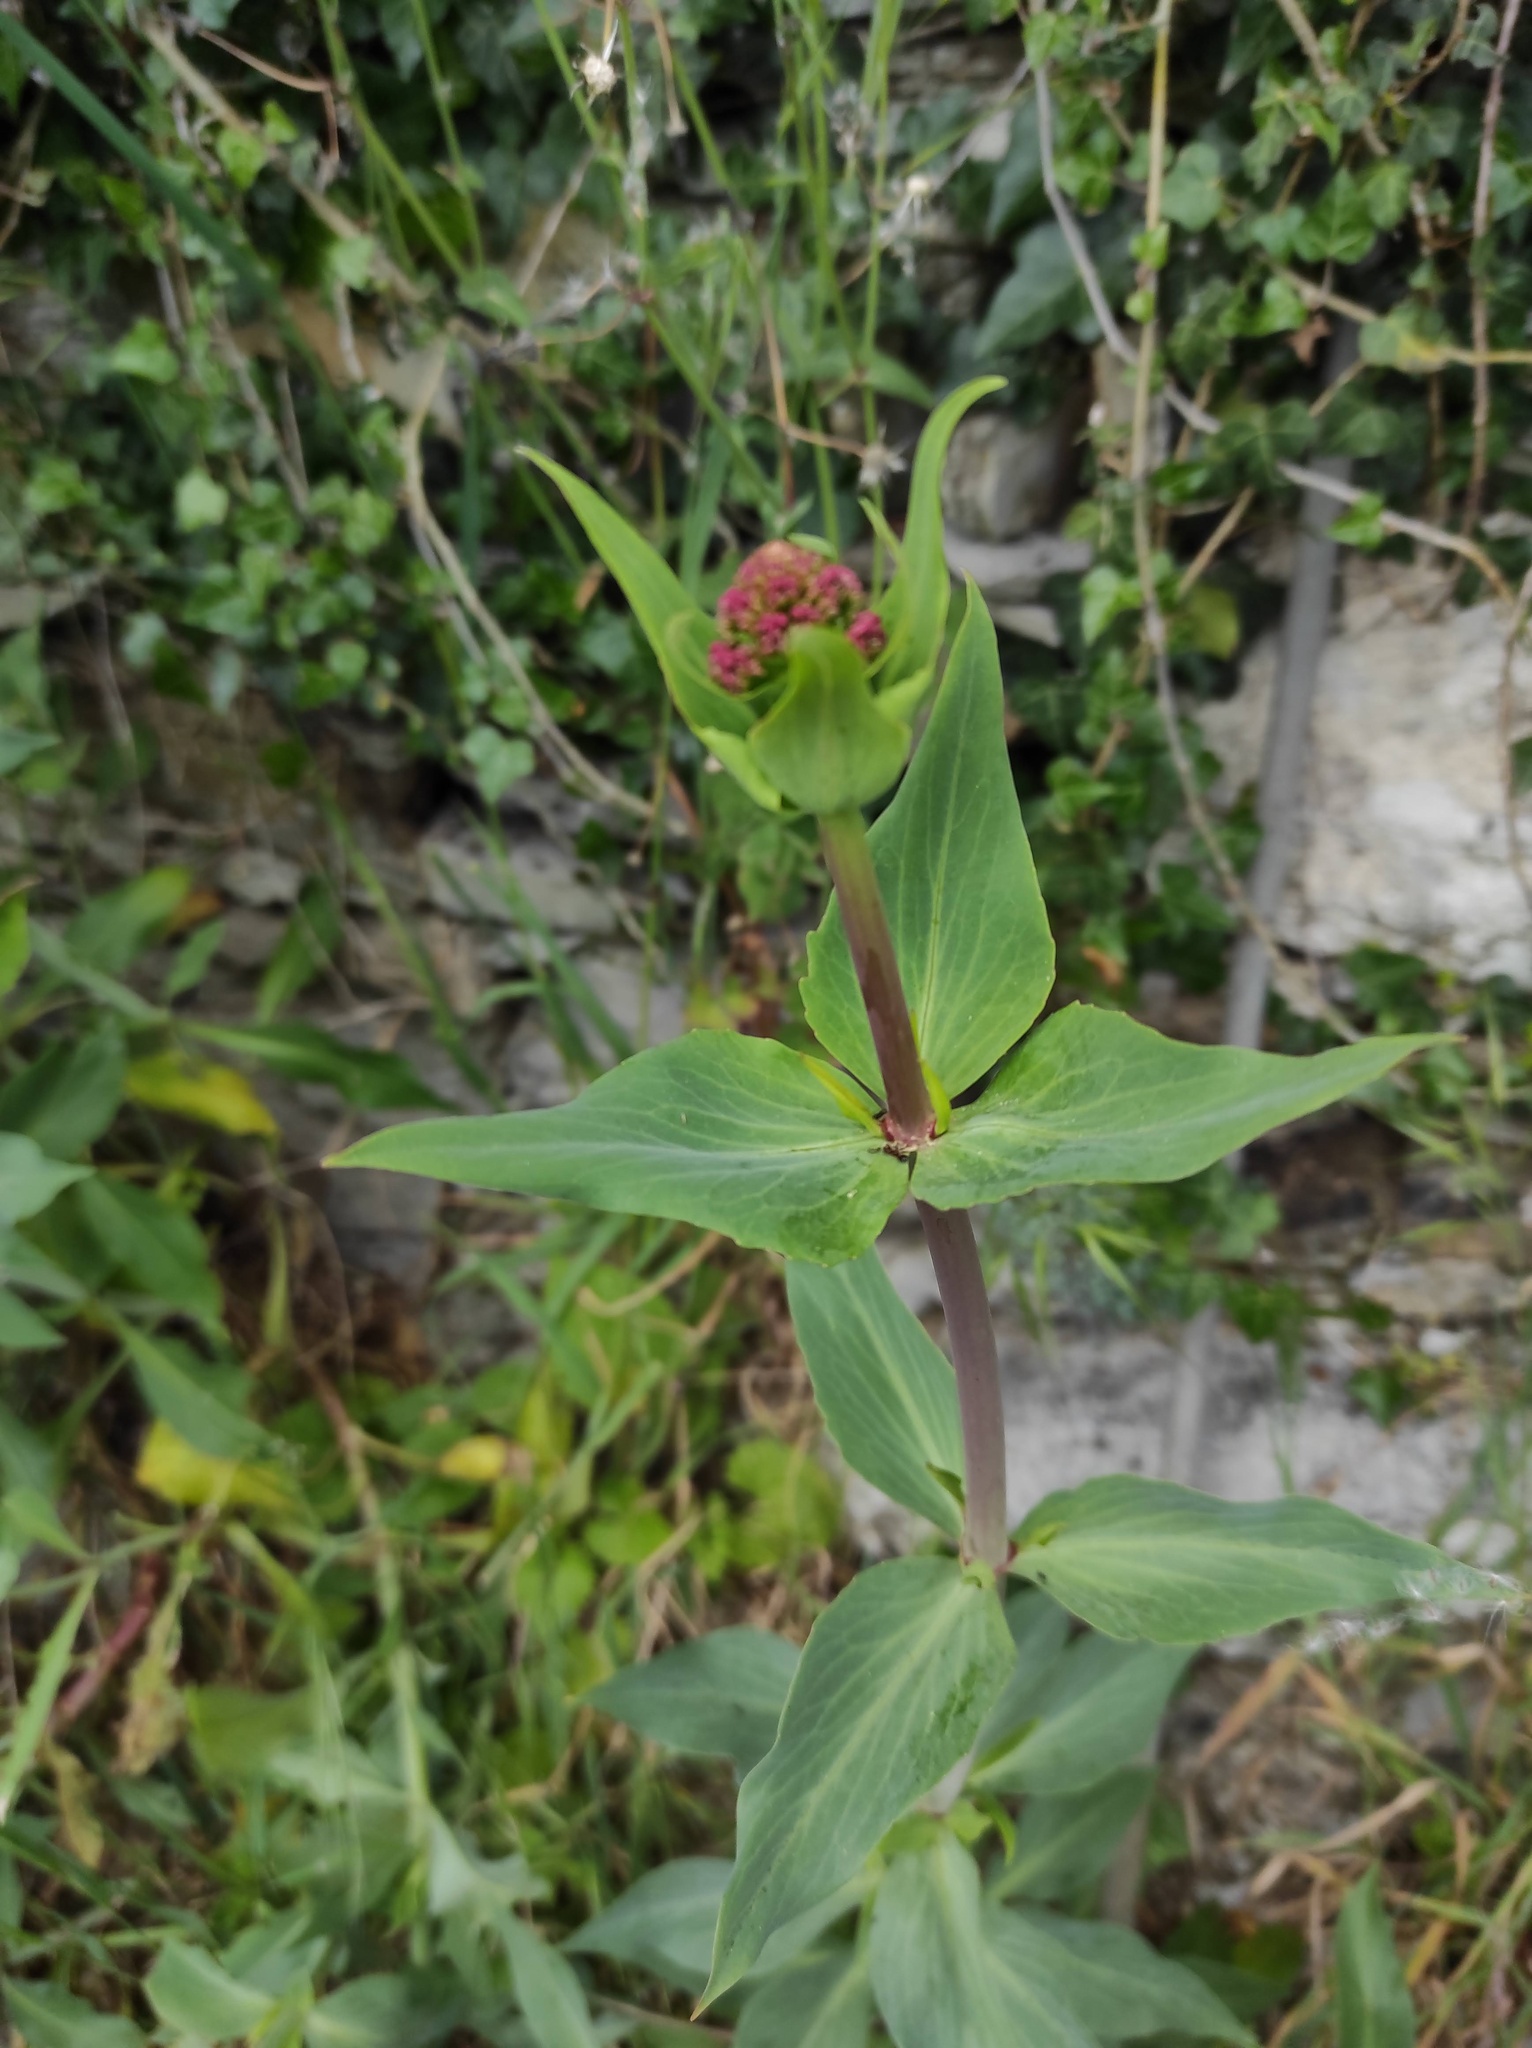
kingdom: Plantae
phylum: Tracheophyta
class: Magnoliopsida
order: Dipsacales
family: Caprifoliaceae
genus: Centranthus
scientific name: Centranthus ruber
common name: Red valerian
